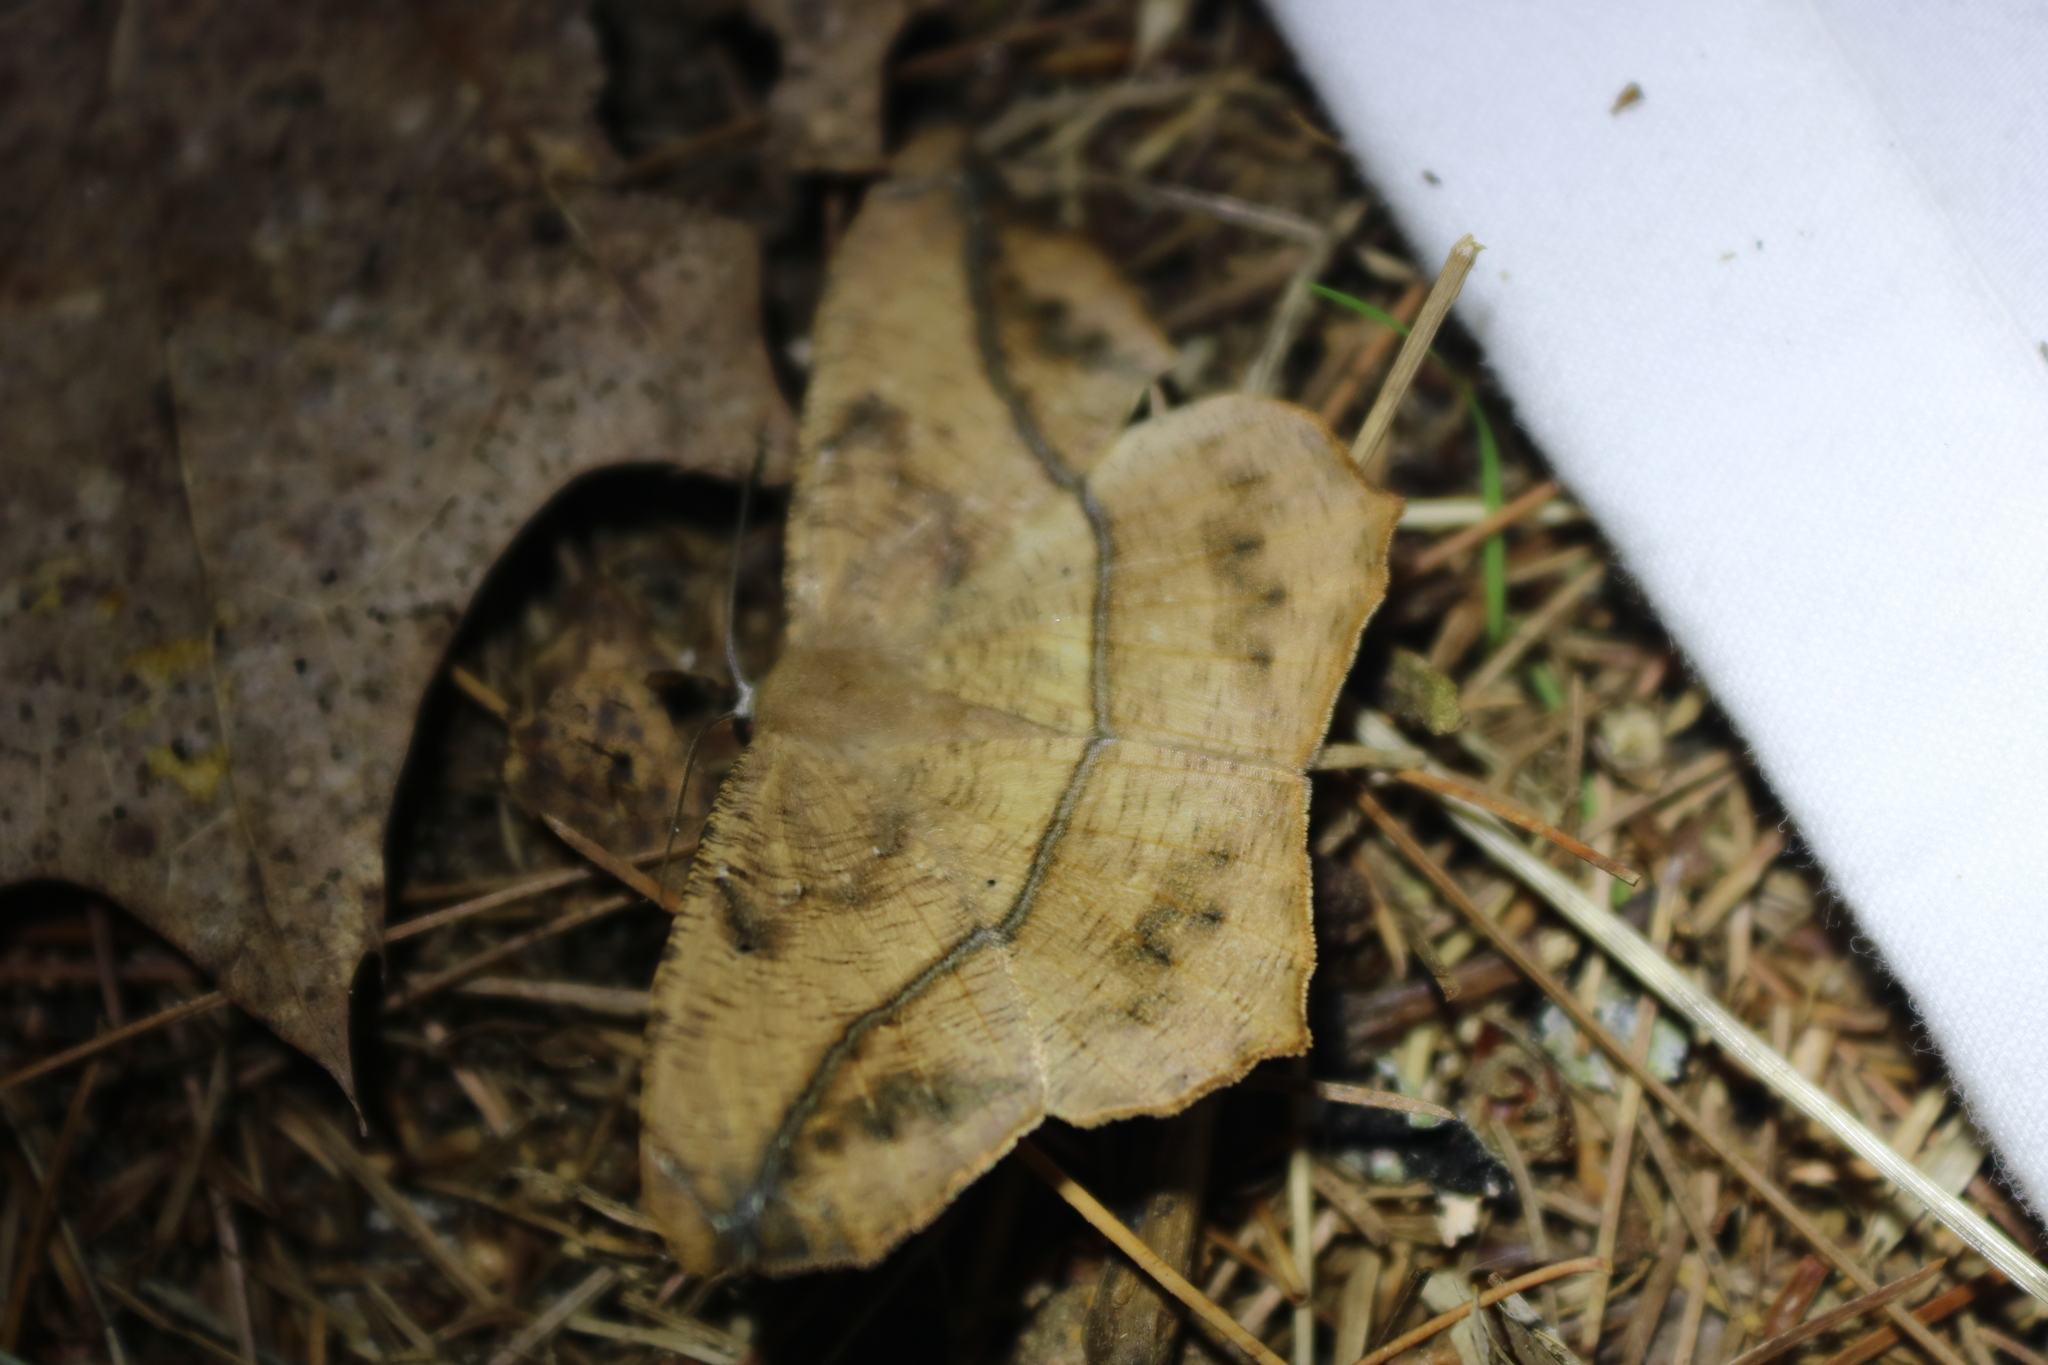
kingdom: Animalia
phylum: Arthropoda
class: Insecta
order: Lepidoptera
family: Geometridae
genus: Prochoerodes
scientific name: Prochoerodes lineola
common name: Large maple spanworm
